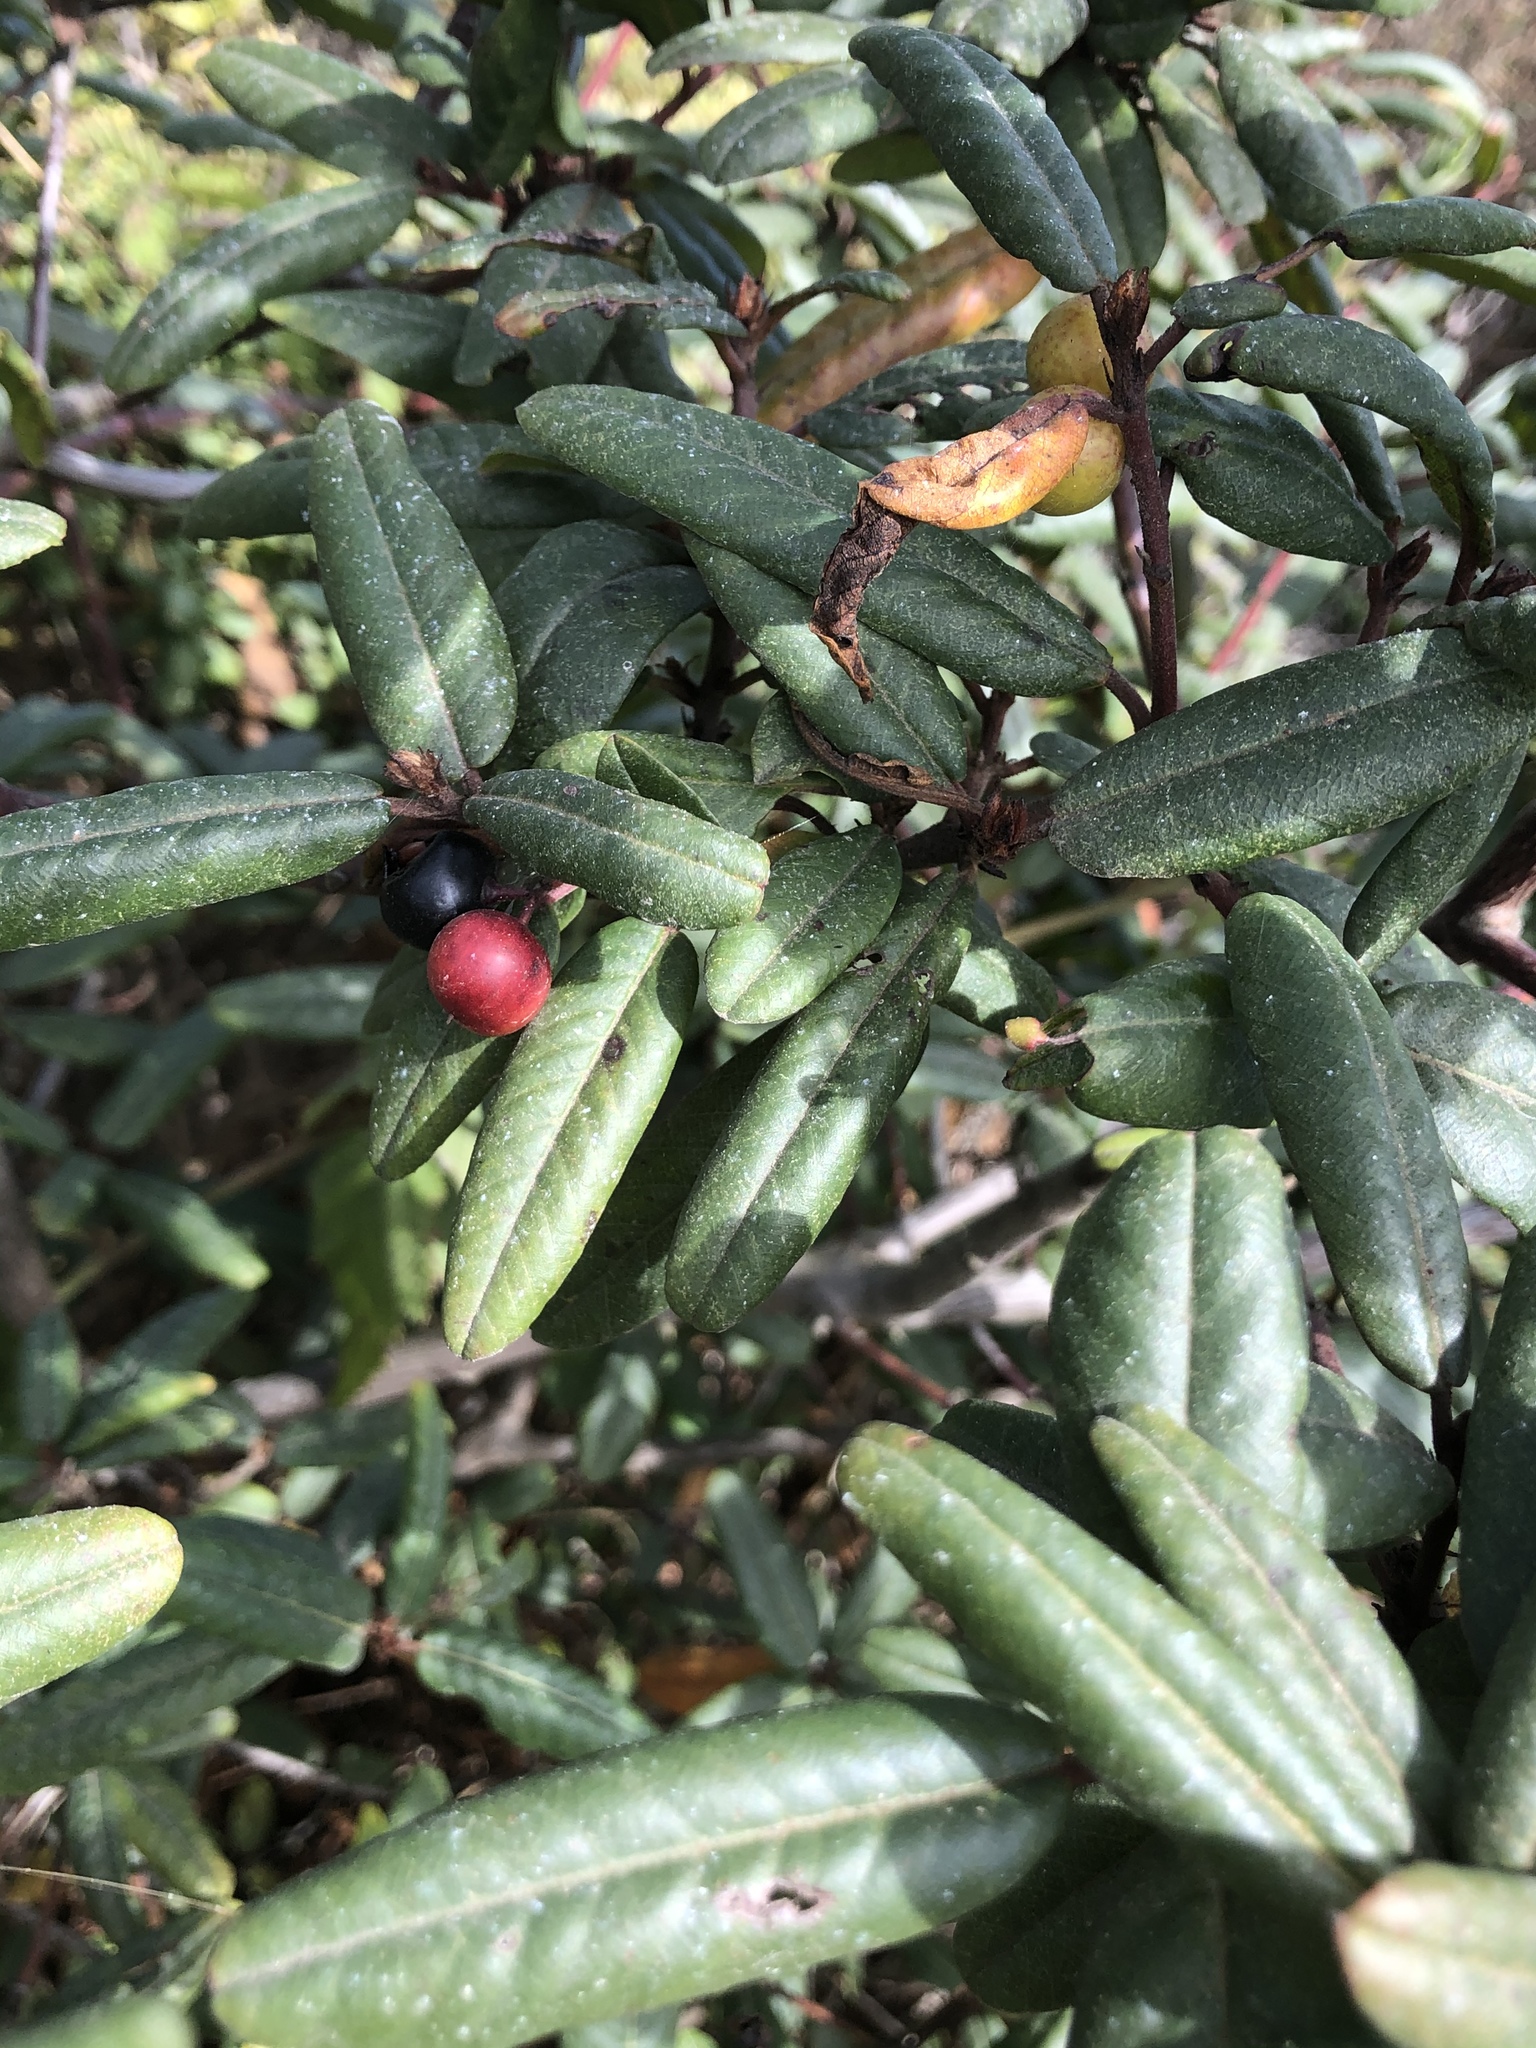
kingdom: Plantae
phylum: Tracheophyta
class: Magnoliopsida
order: Rosales
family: Rhamnaceae
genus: Frangula
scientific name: Frangula californica
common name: California buckthorn
